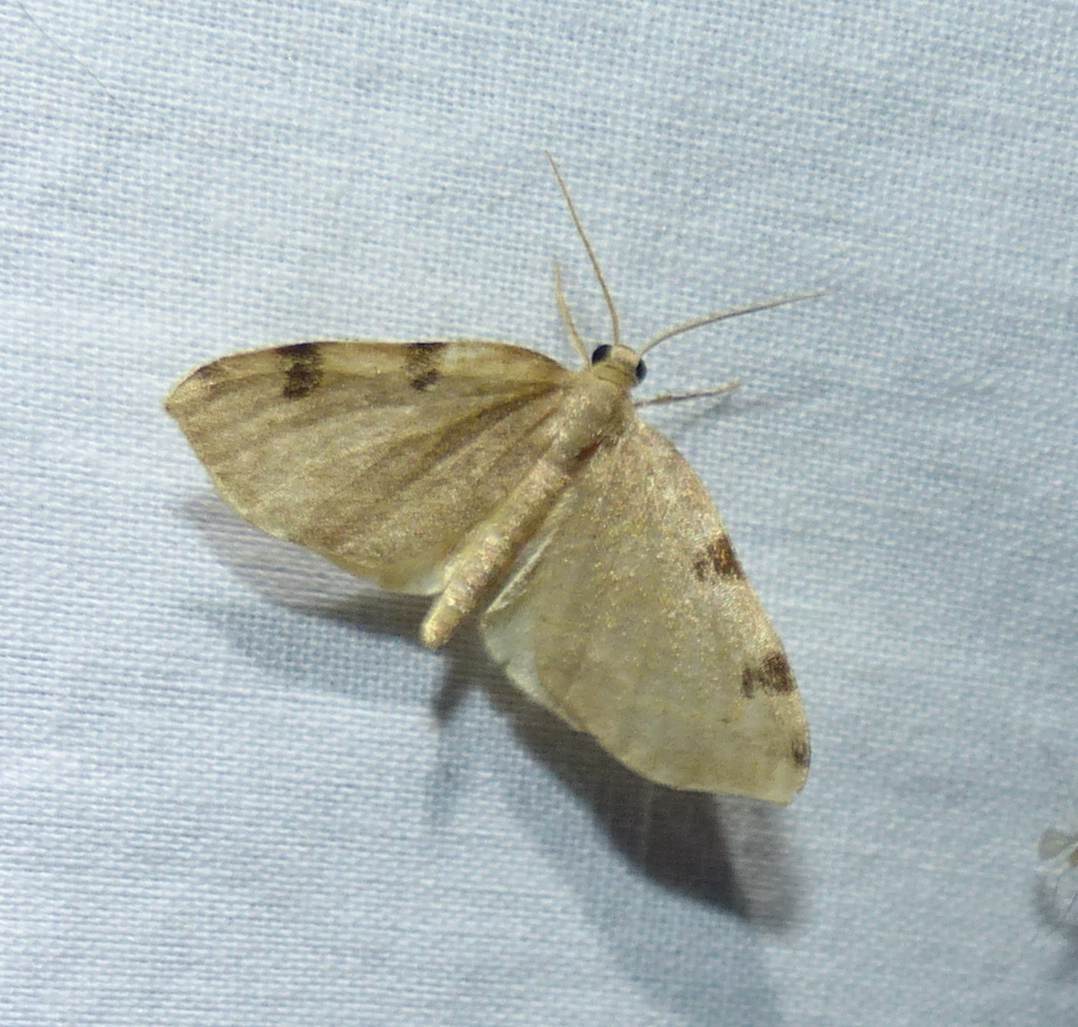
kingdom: Animalia
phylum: Arthropoda
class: Insecta
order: Lepidoptera
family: Geometridae
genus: Heterophleps
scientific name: Heterophleps triguttaria
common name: Three-spotted fillip
